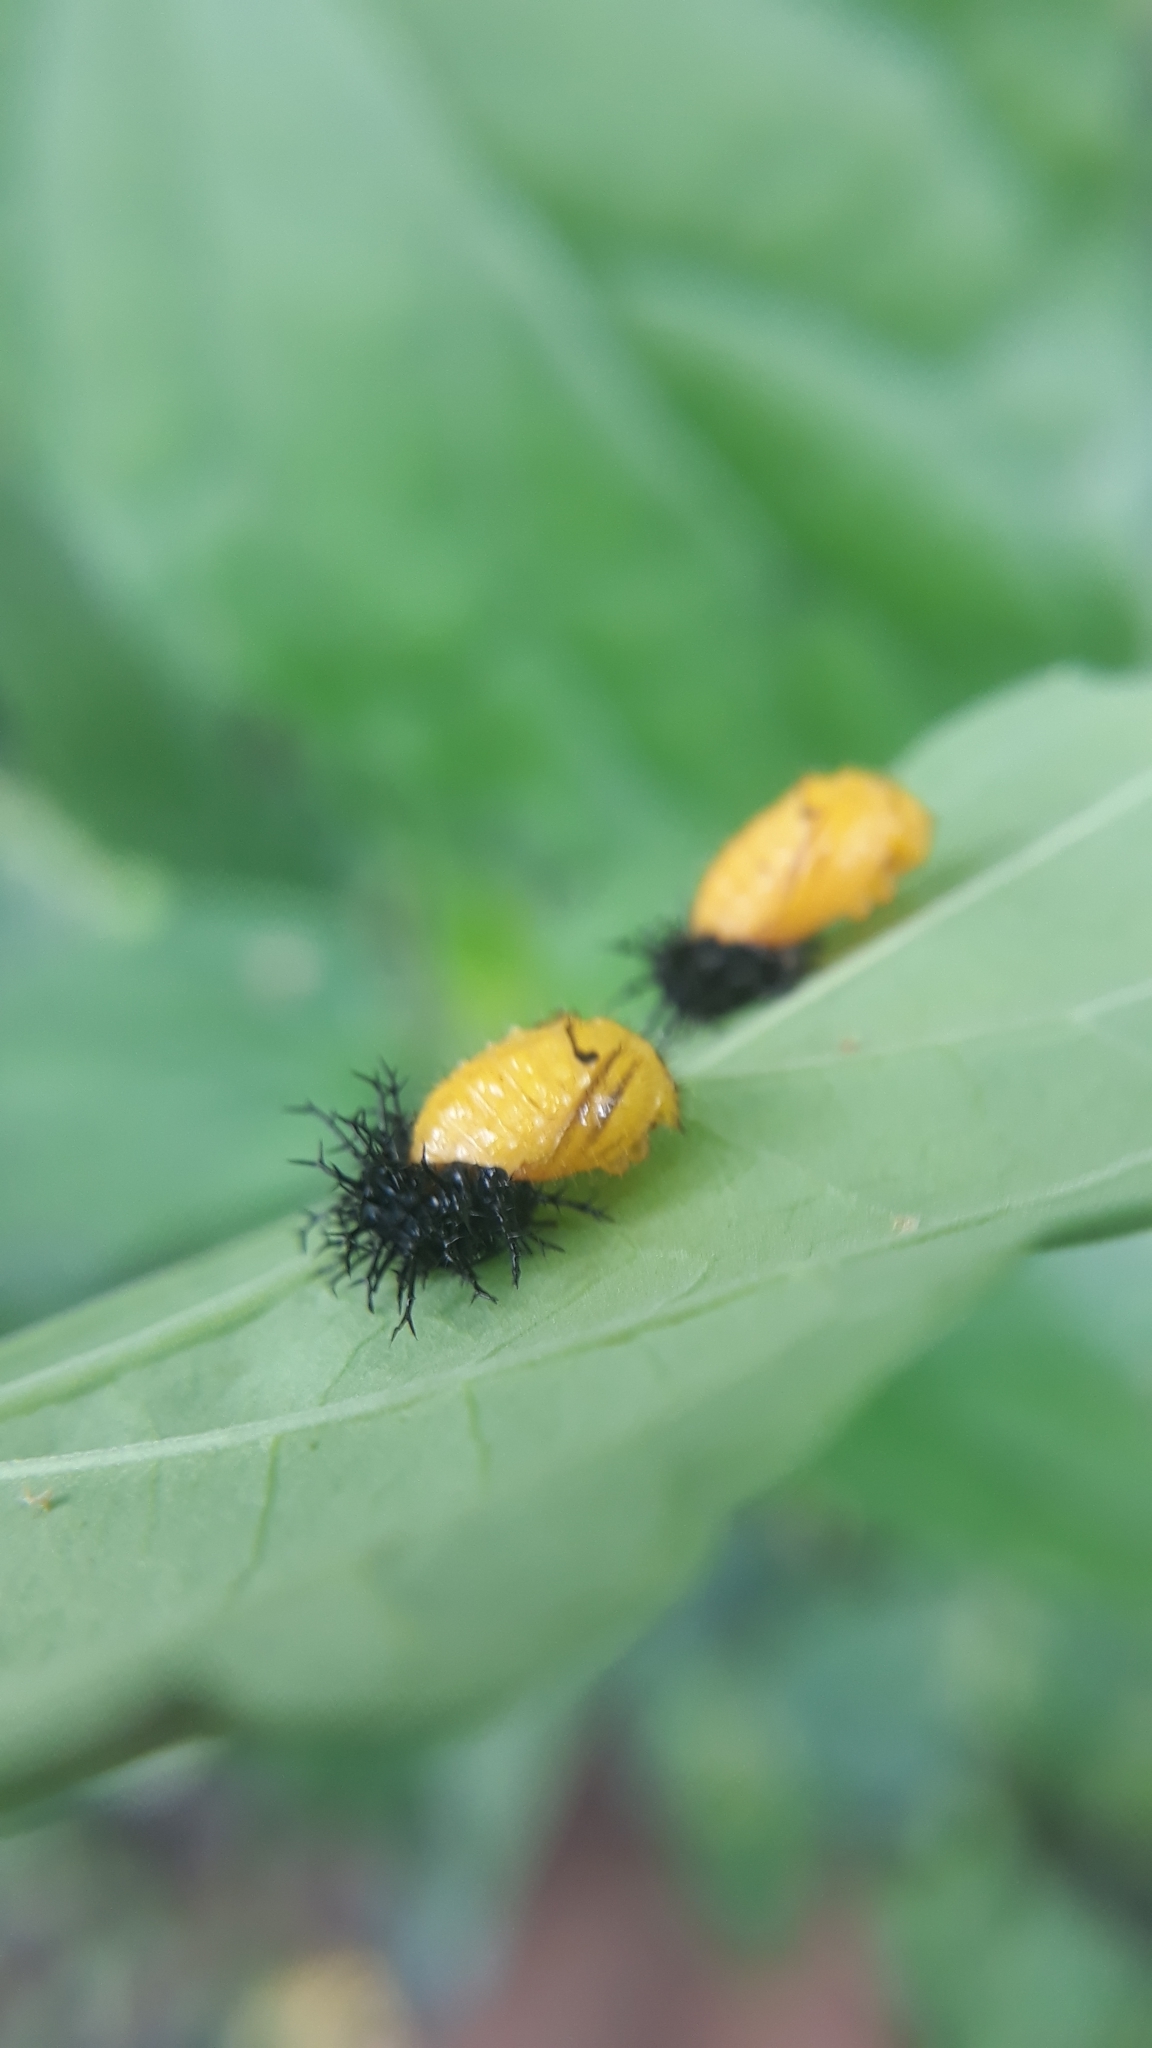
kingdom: Animalia
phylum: Arthropoda
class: Insecta
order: Coleoptera
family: Coccinellidae
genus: Epilachna
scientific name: Epilachna
